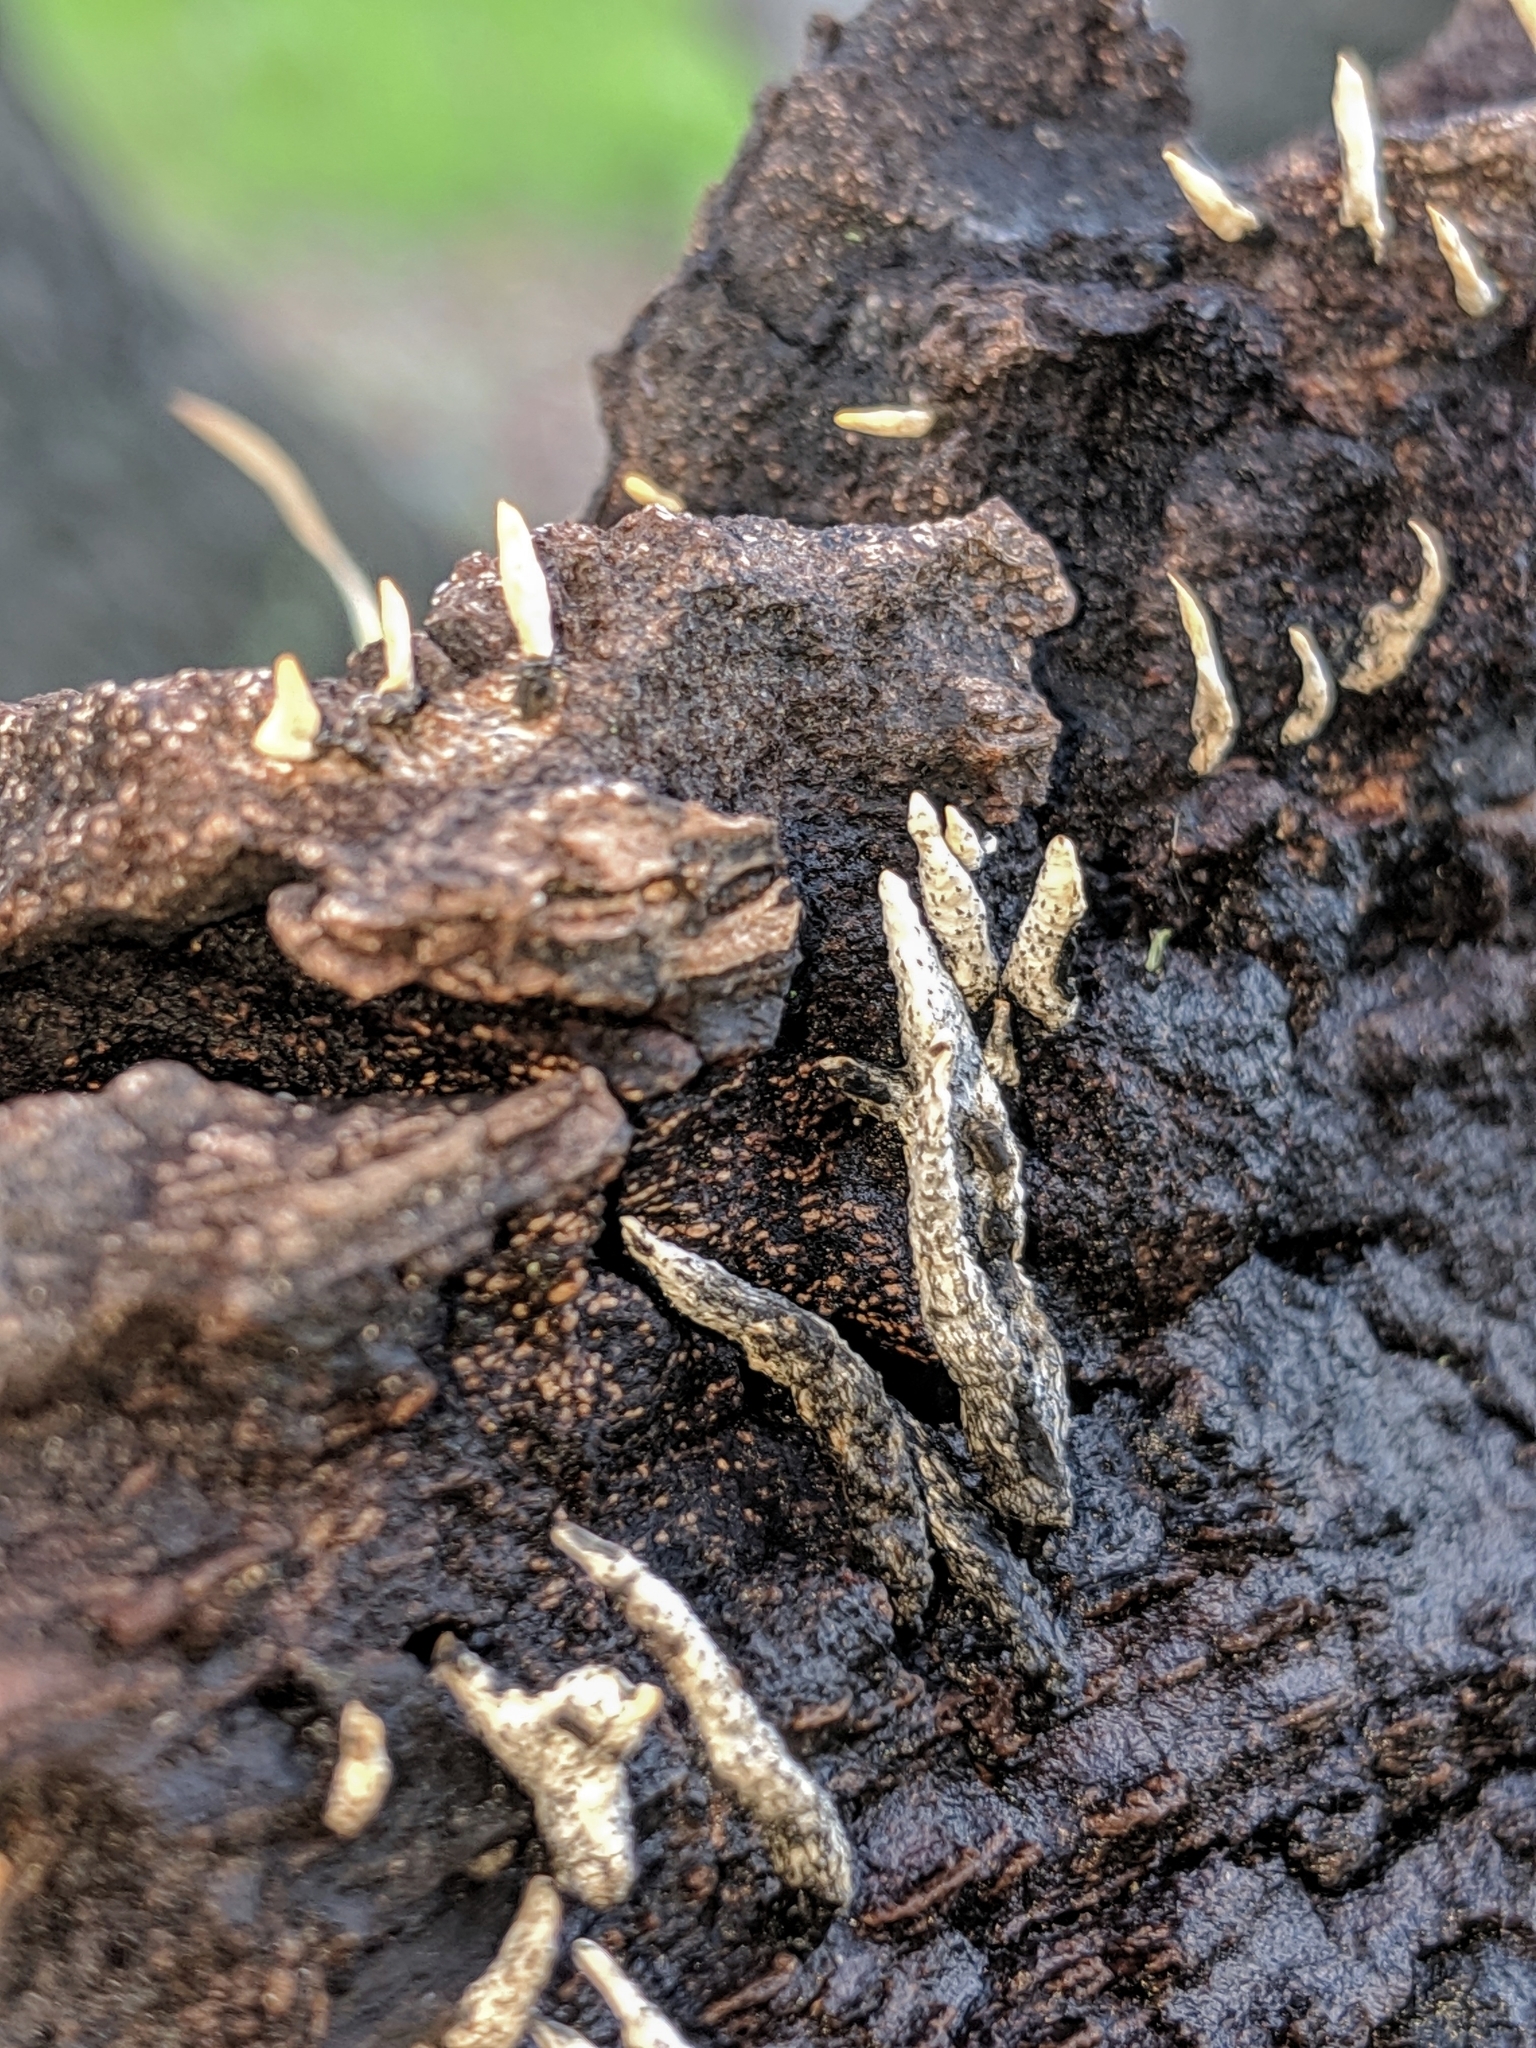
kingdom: Fungi
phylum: Ascomycota
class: Sordariomycetes
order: Xylariales
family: Xylariaceae
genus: Xylaria
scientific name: Xylaria hypoxylon
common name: Candle-snuff fungus
